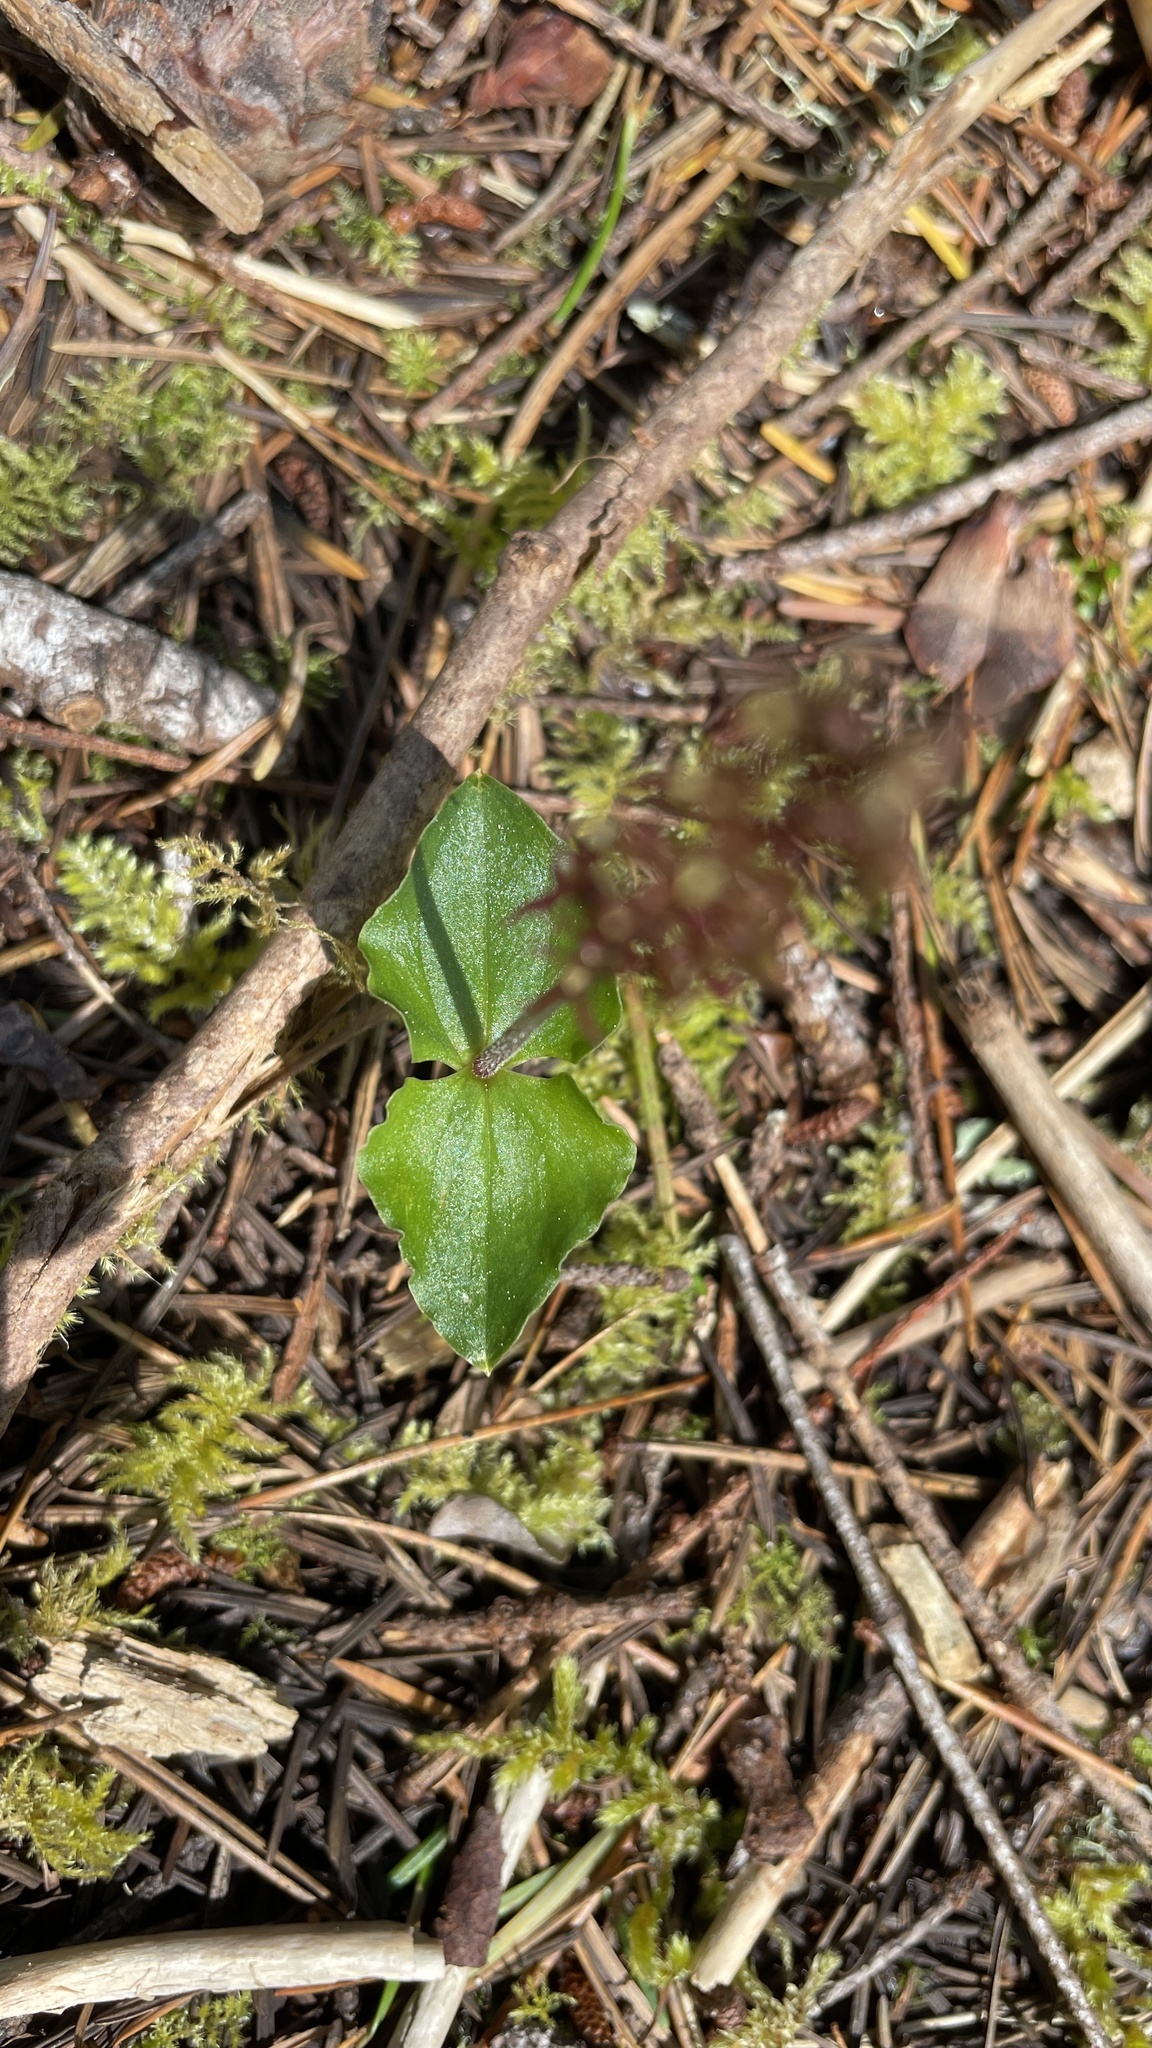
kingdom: Plantae
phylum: Tracheophyta
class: Liliopsida
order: Asparagales
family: Orchidaceae
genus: Neottia
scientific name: Neottia cordata
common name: Lesser twayblade
